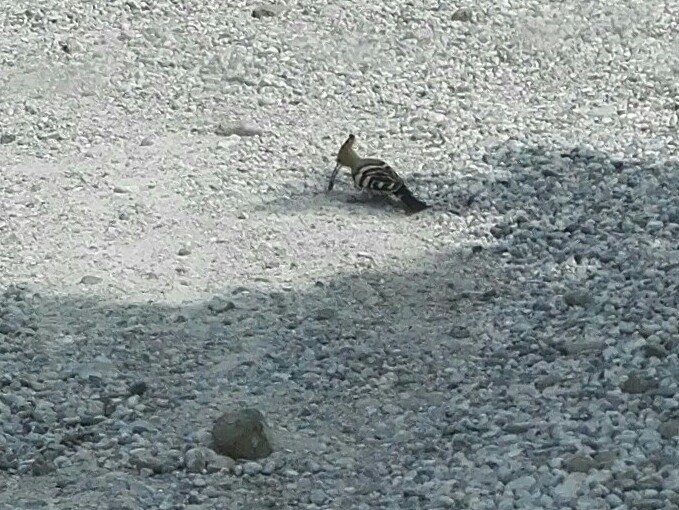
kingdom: Animalia
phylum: Chordata
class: Aves
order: Bucerotiformes
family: Upupidae
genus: Upupa
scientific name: Upupa epops
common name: Eurasian hoopoe
